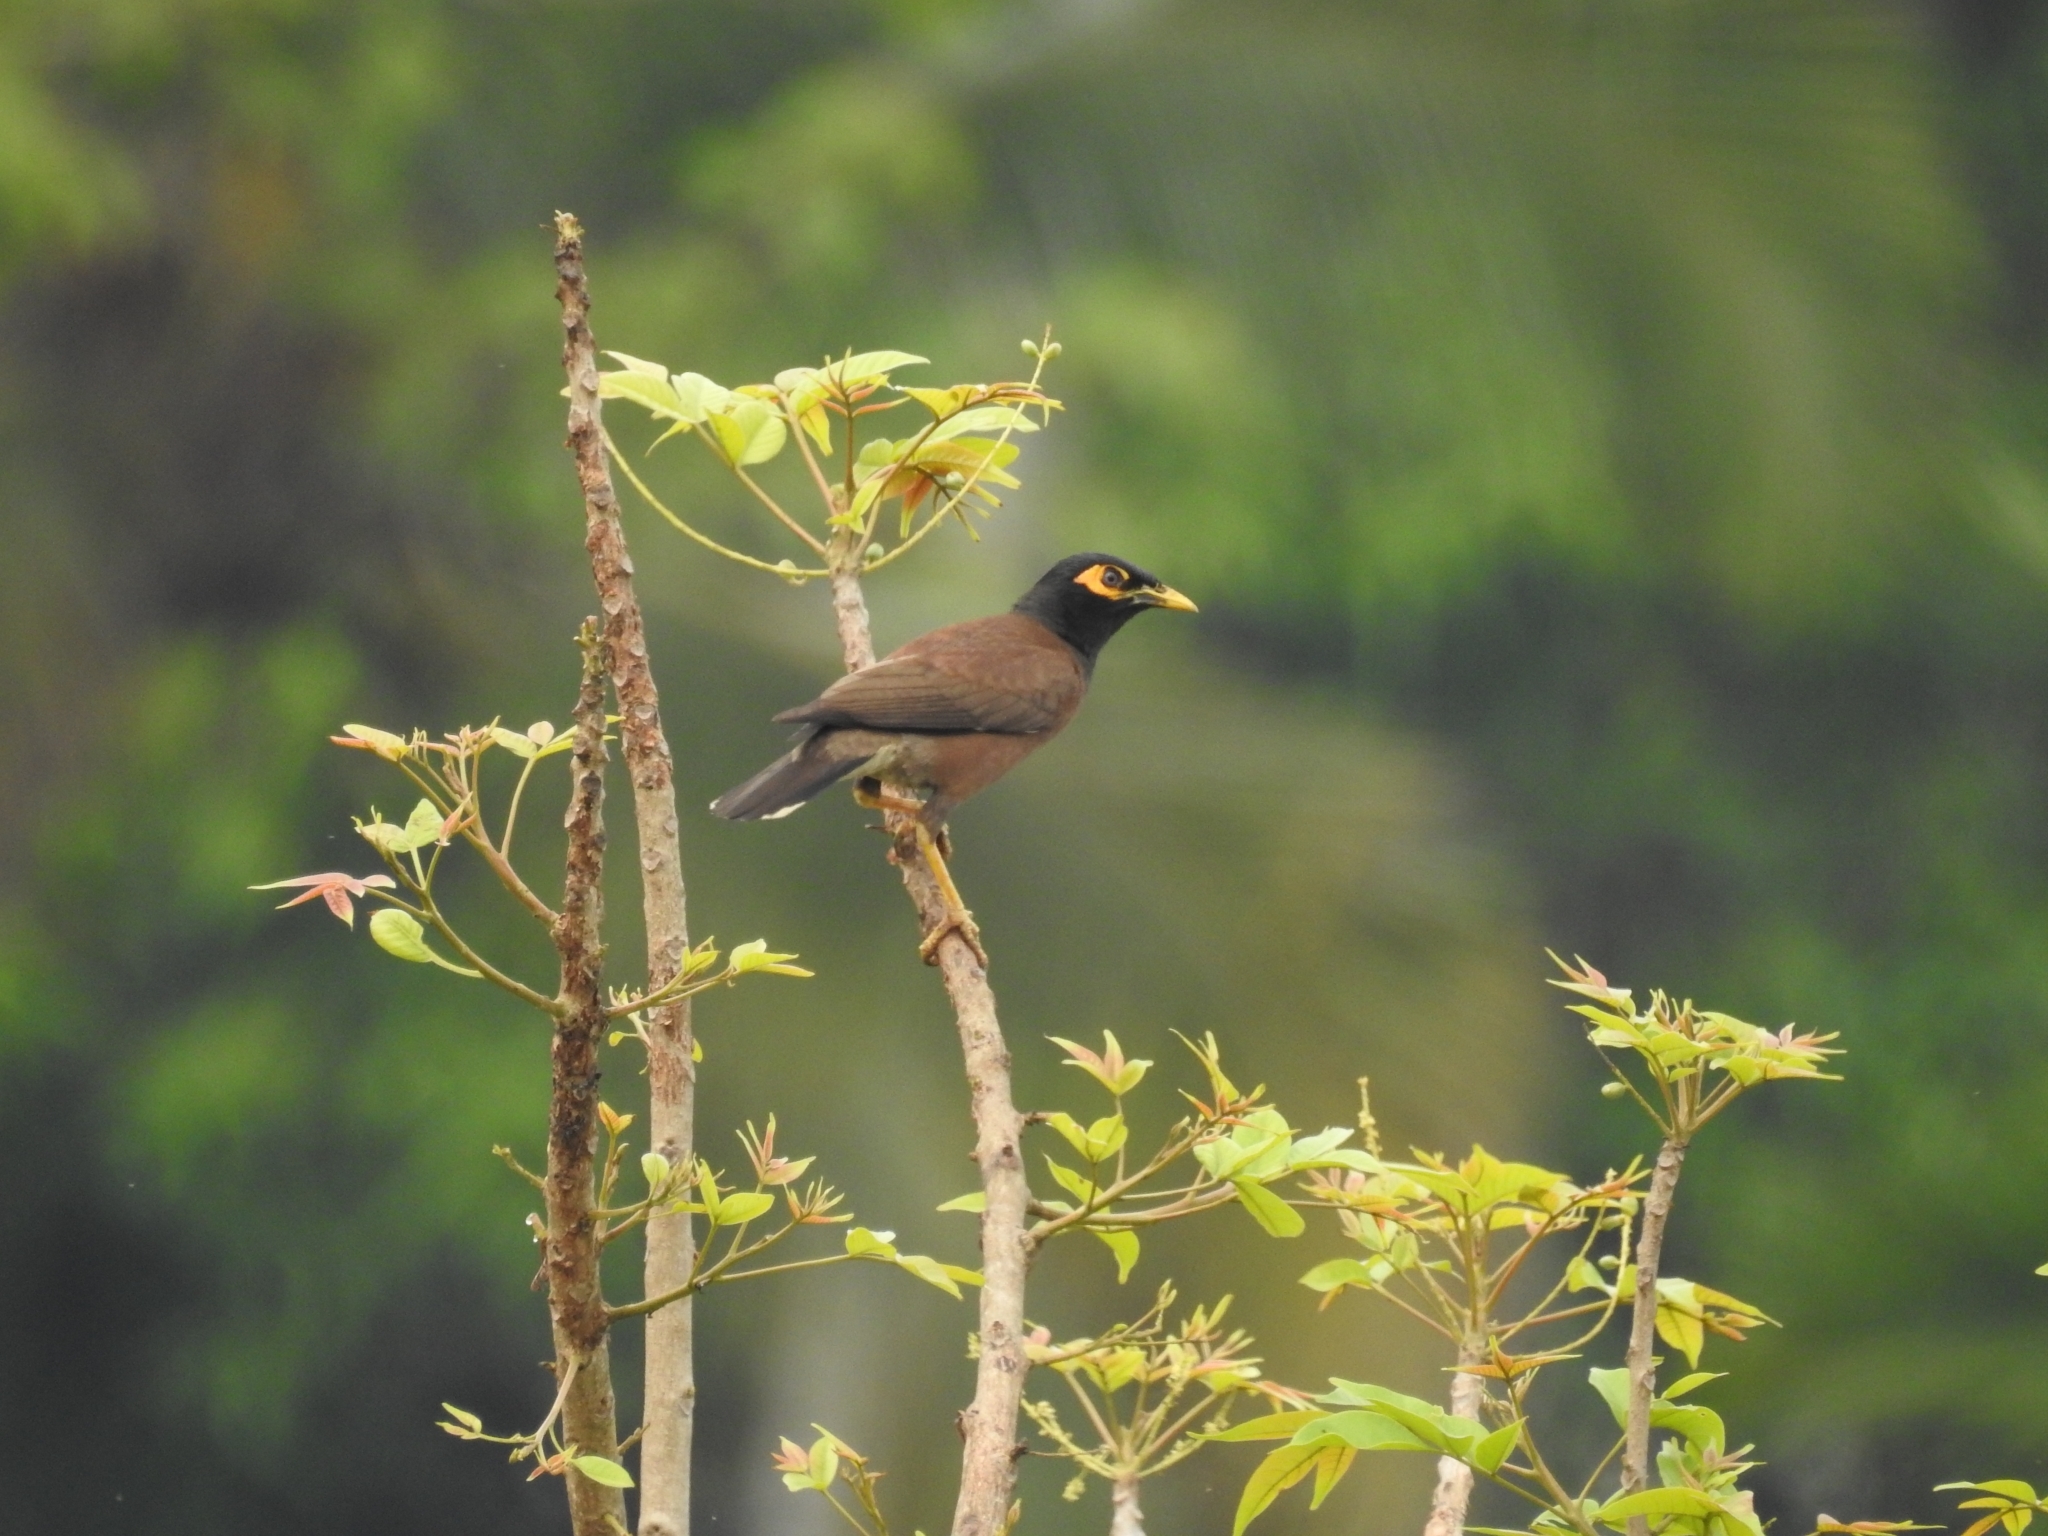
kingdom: Animalia
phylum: Chordata
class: Aves
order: Passeriformes
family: Sturnidae
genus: Acridotheres
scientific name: Acridotheres tristis
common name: Common myna
